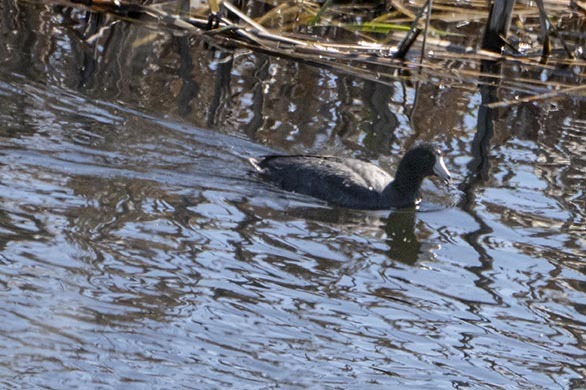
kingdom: Animalia
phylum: Chordata
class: Aves
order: Gruiformes
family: Rallidae
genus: Fulica
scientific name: Fulica americana
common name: American coot
